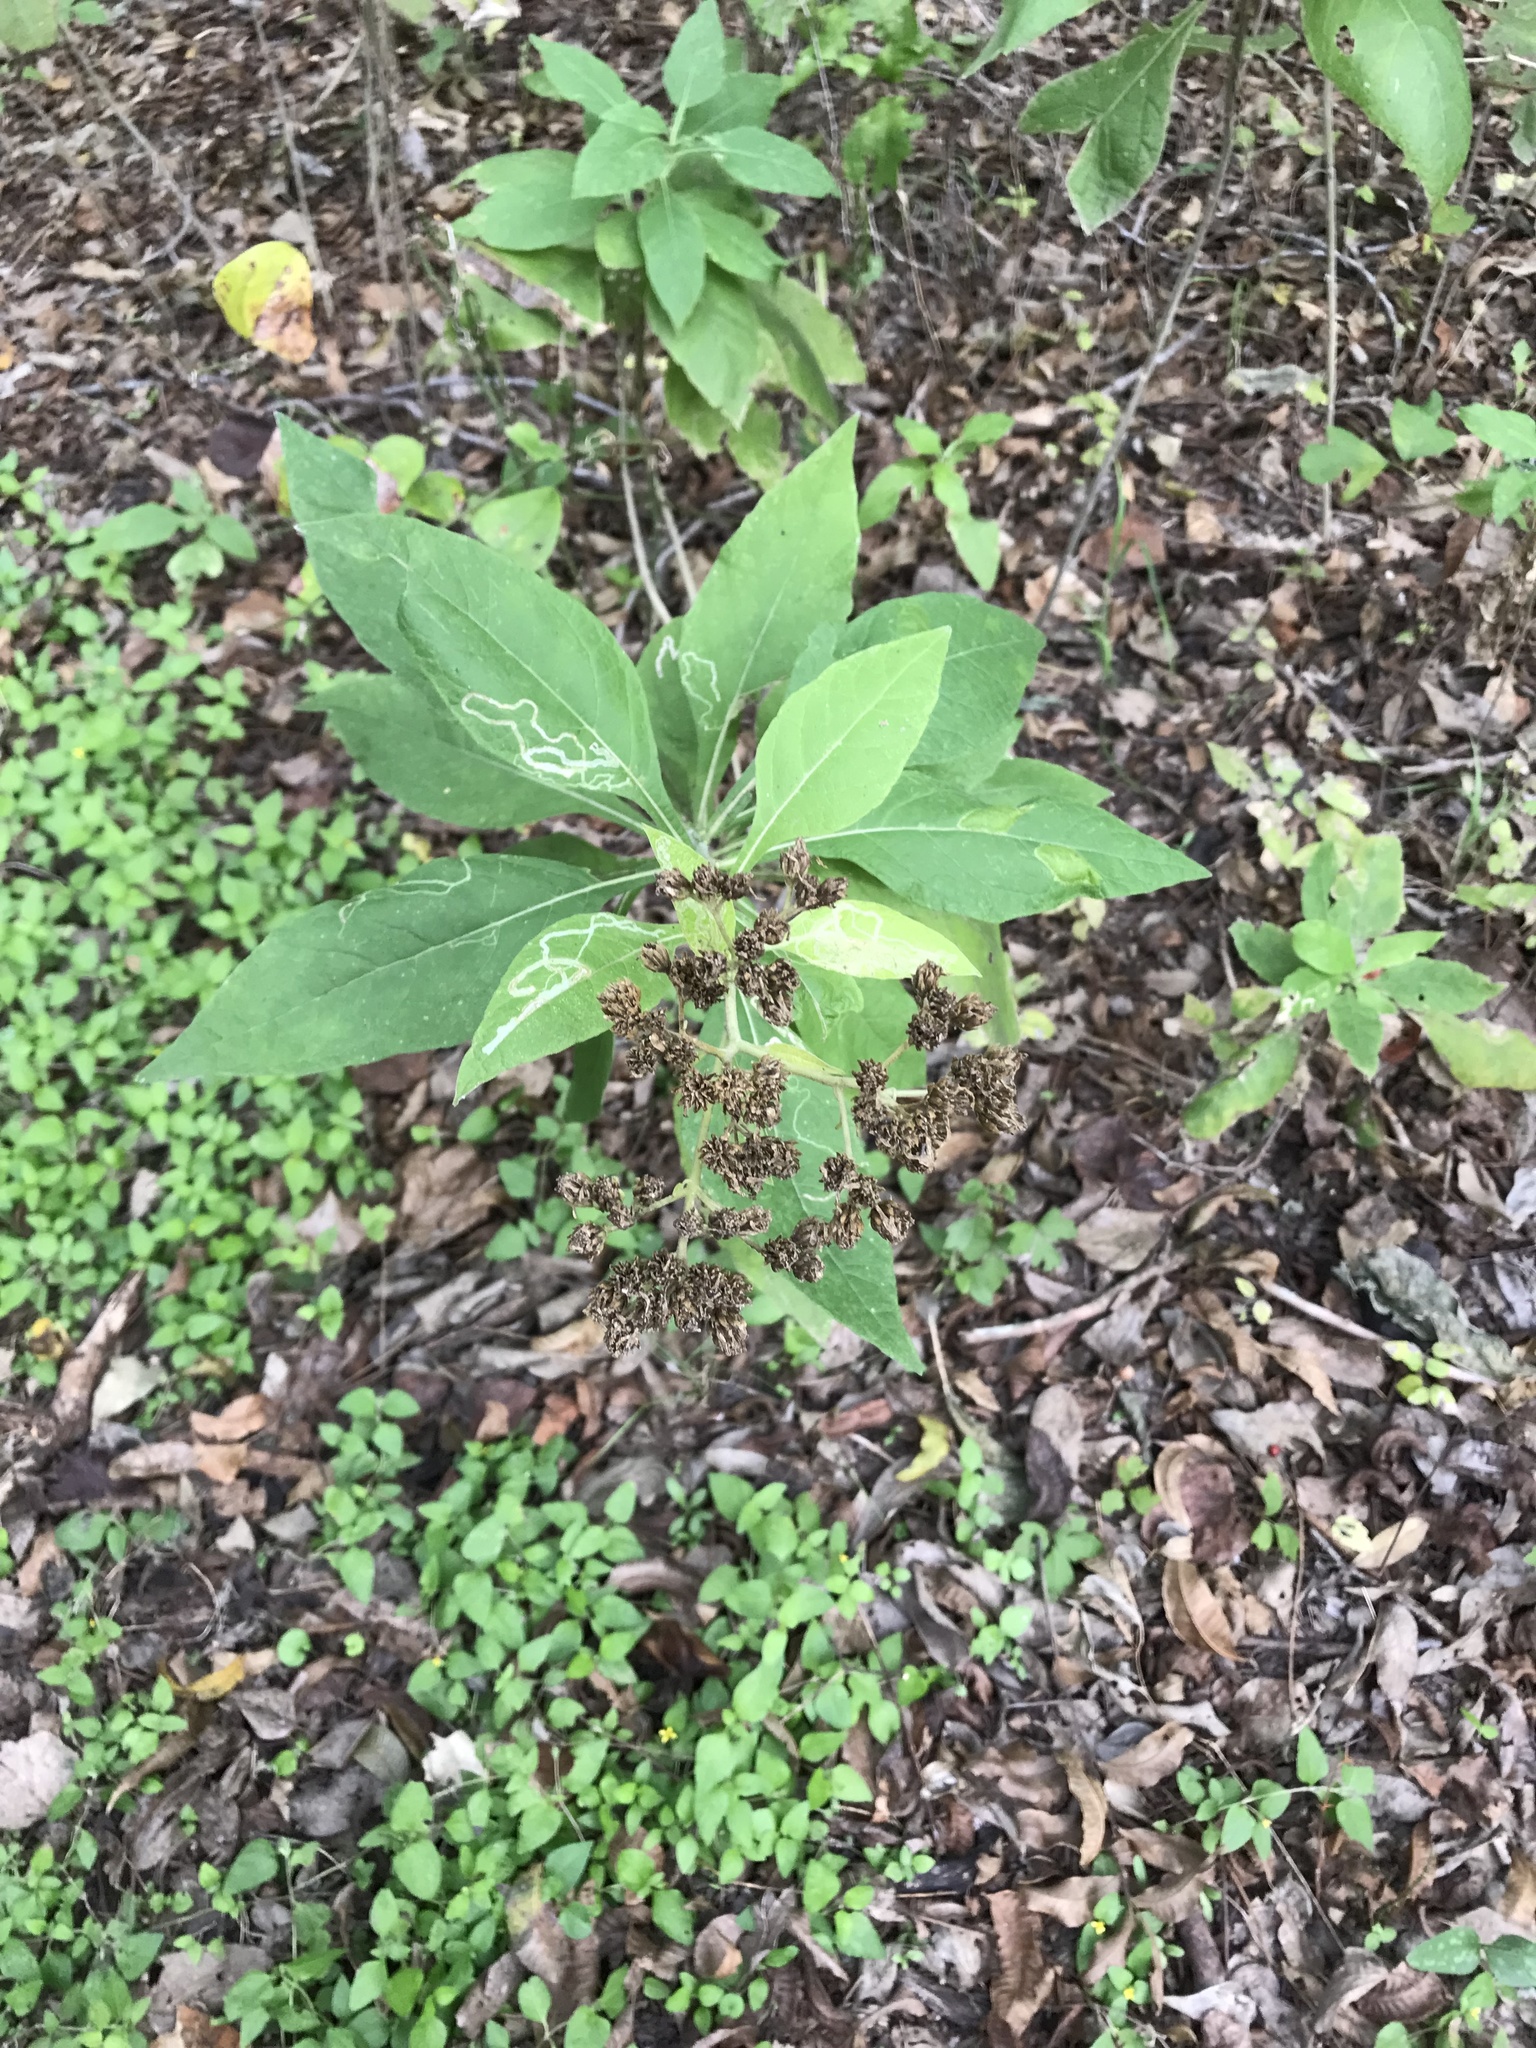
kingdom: Plantae
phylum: Tracheophyta
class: Magnoliopsida
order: Asterales
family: Asteraceae
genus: Verbesina
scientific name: Verbesina virginica
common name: Frostweed
